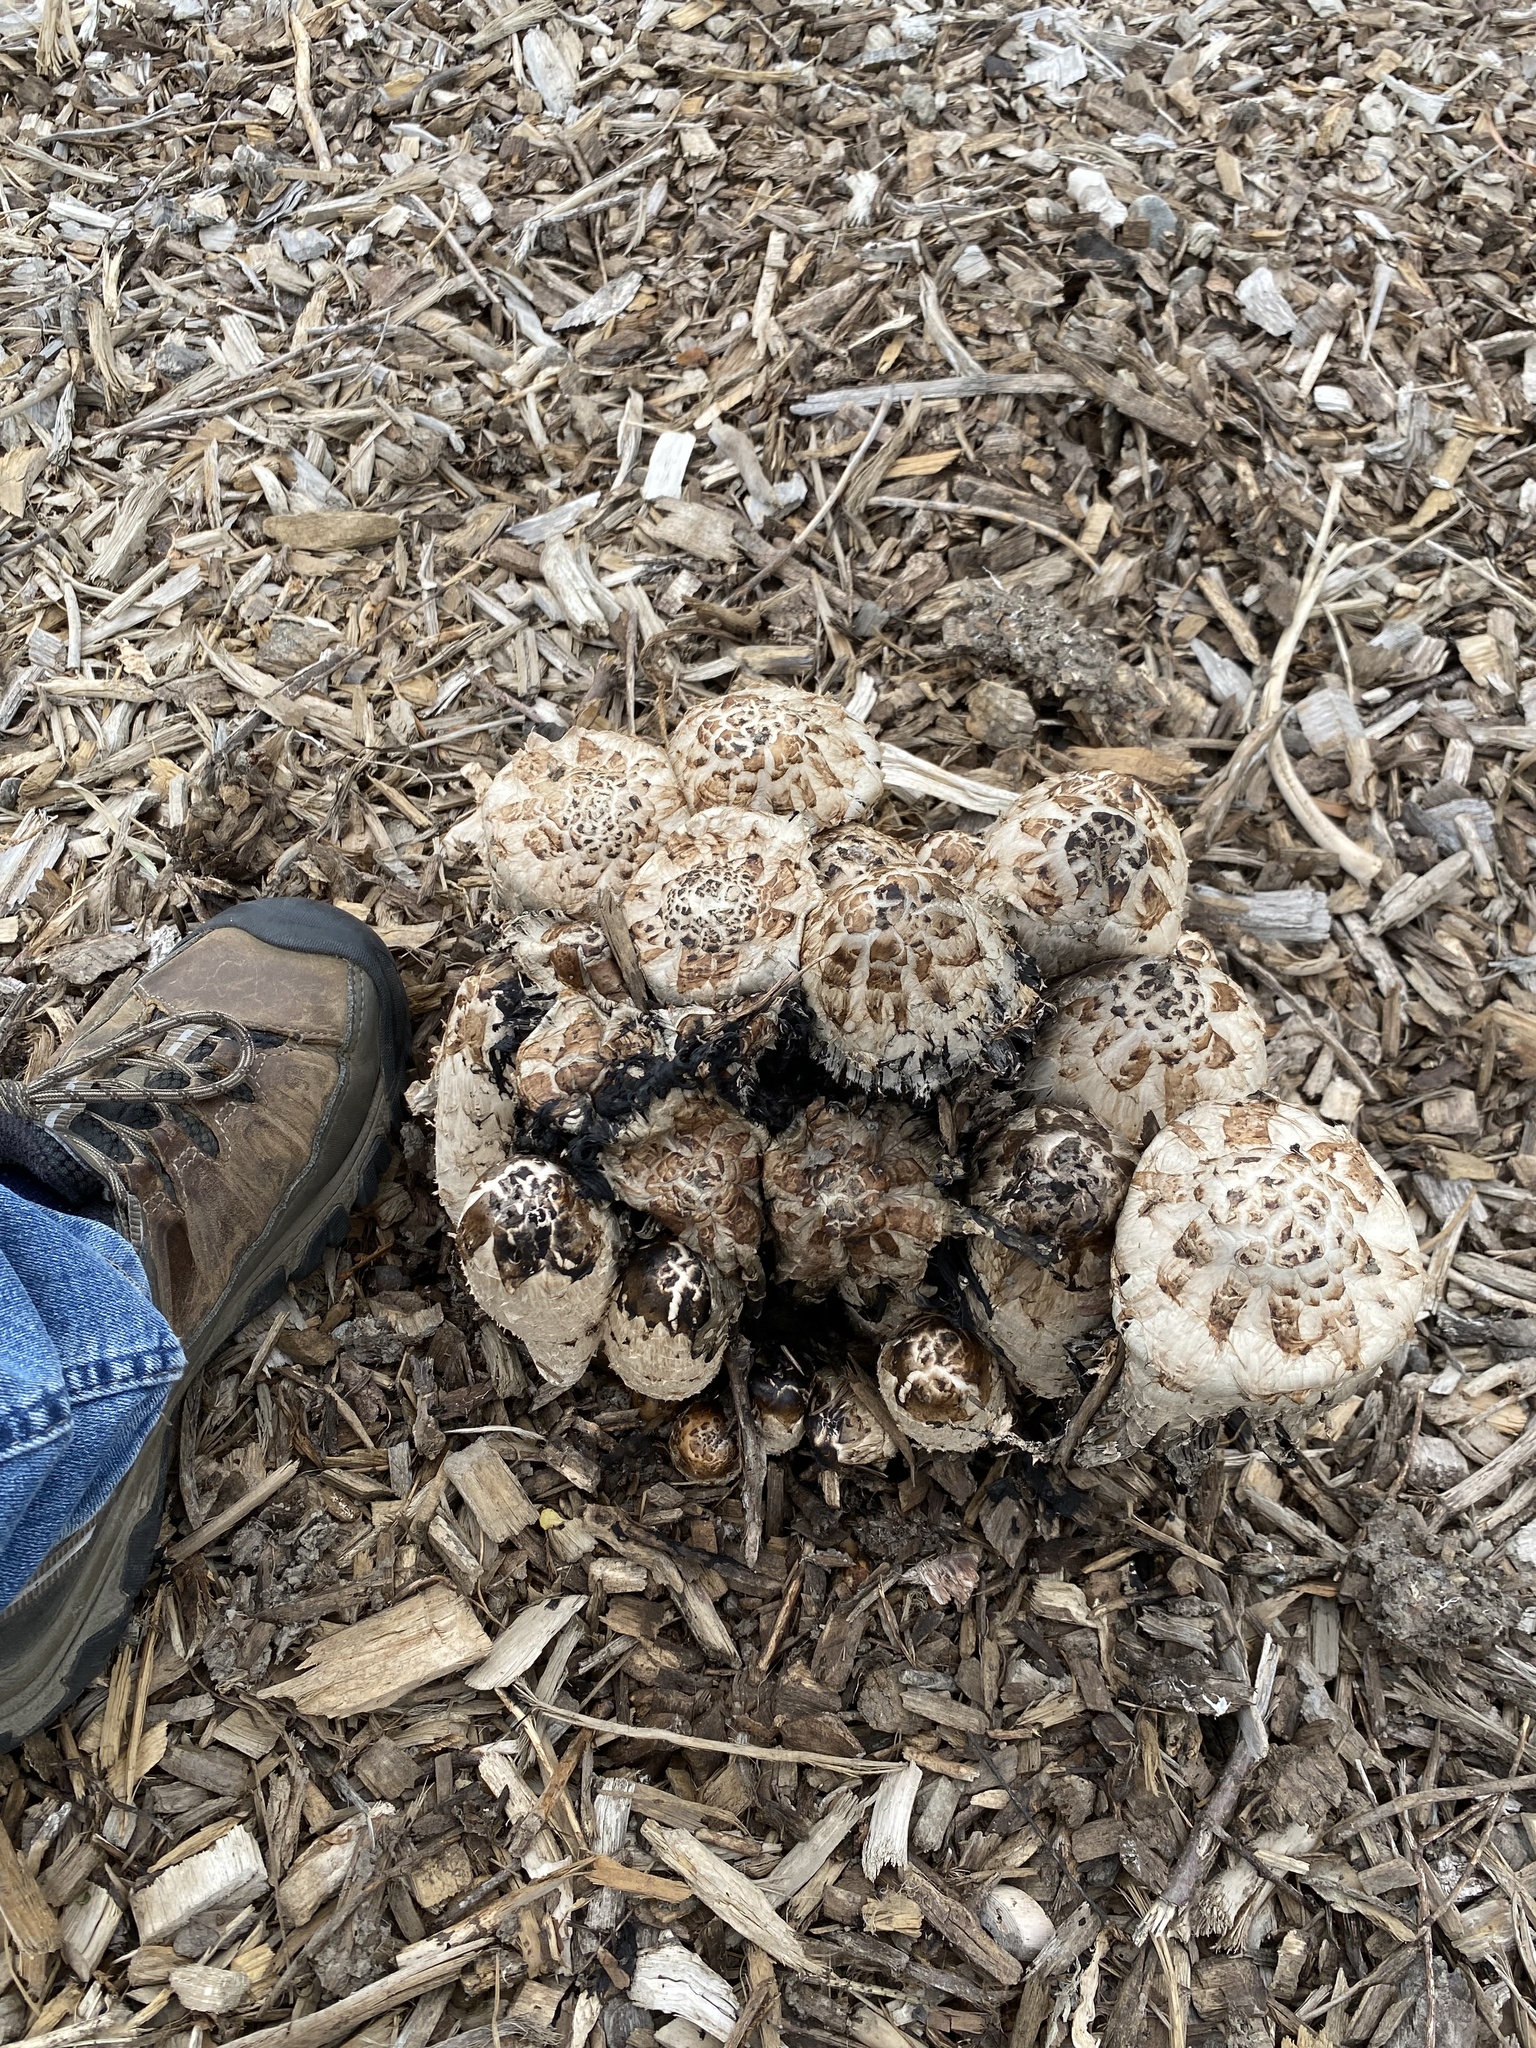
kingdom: Fungi
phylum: Basidiomycota
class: Agaricomycetes
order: Agaricales
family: Agaricaceae
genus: Coprinus
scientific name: Coprinus comatus
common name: Lawyer's wig
